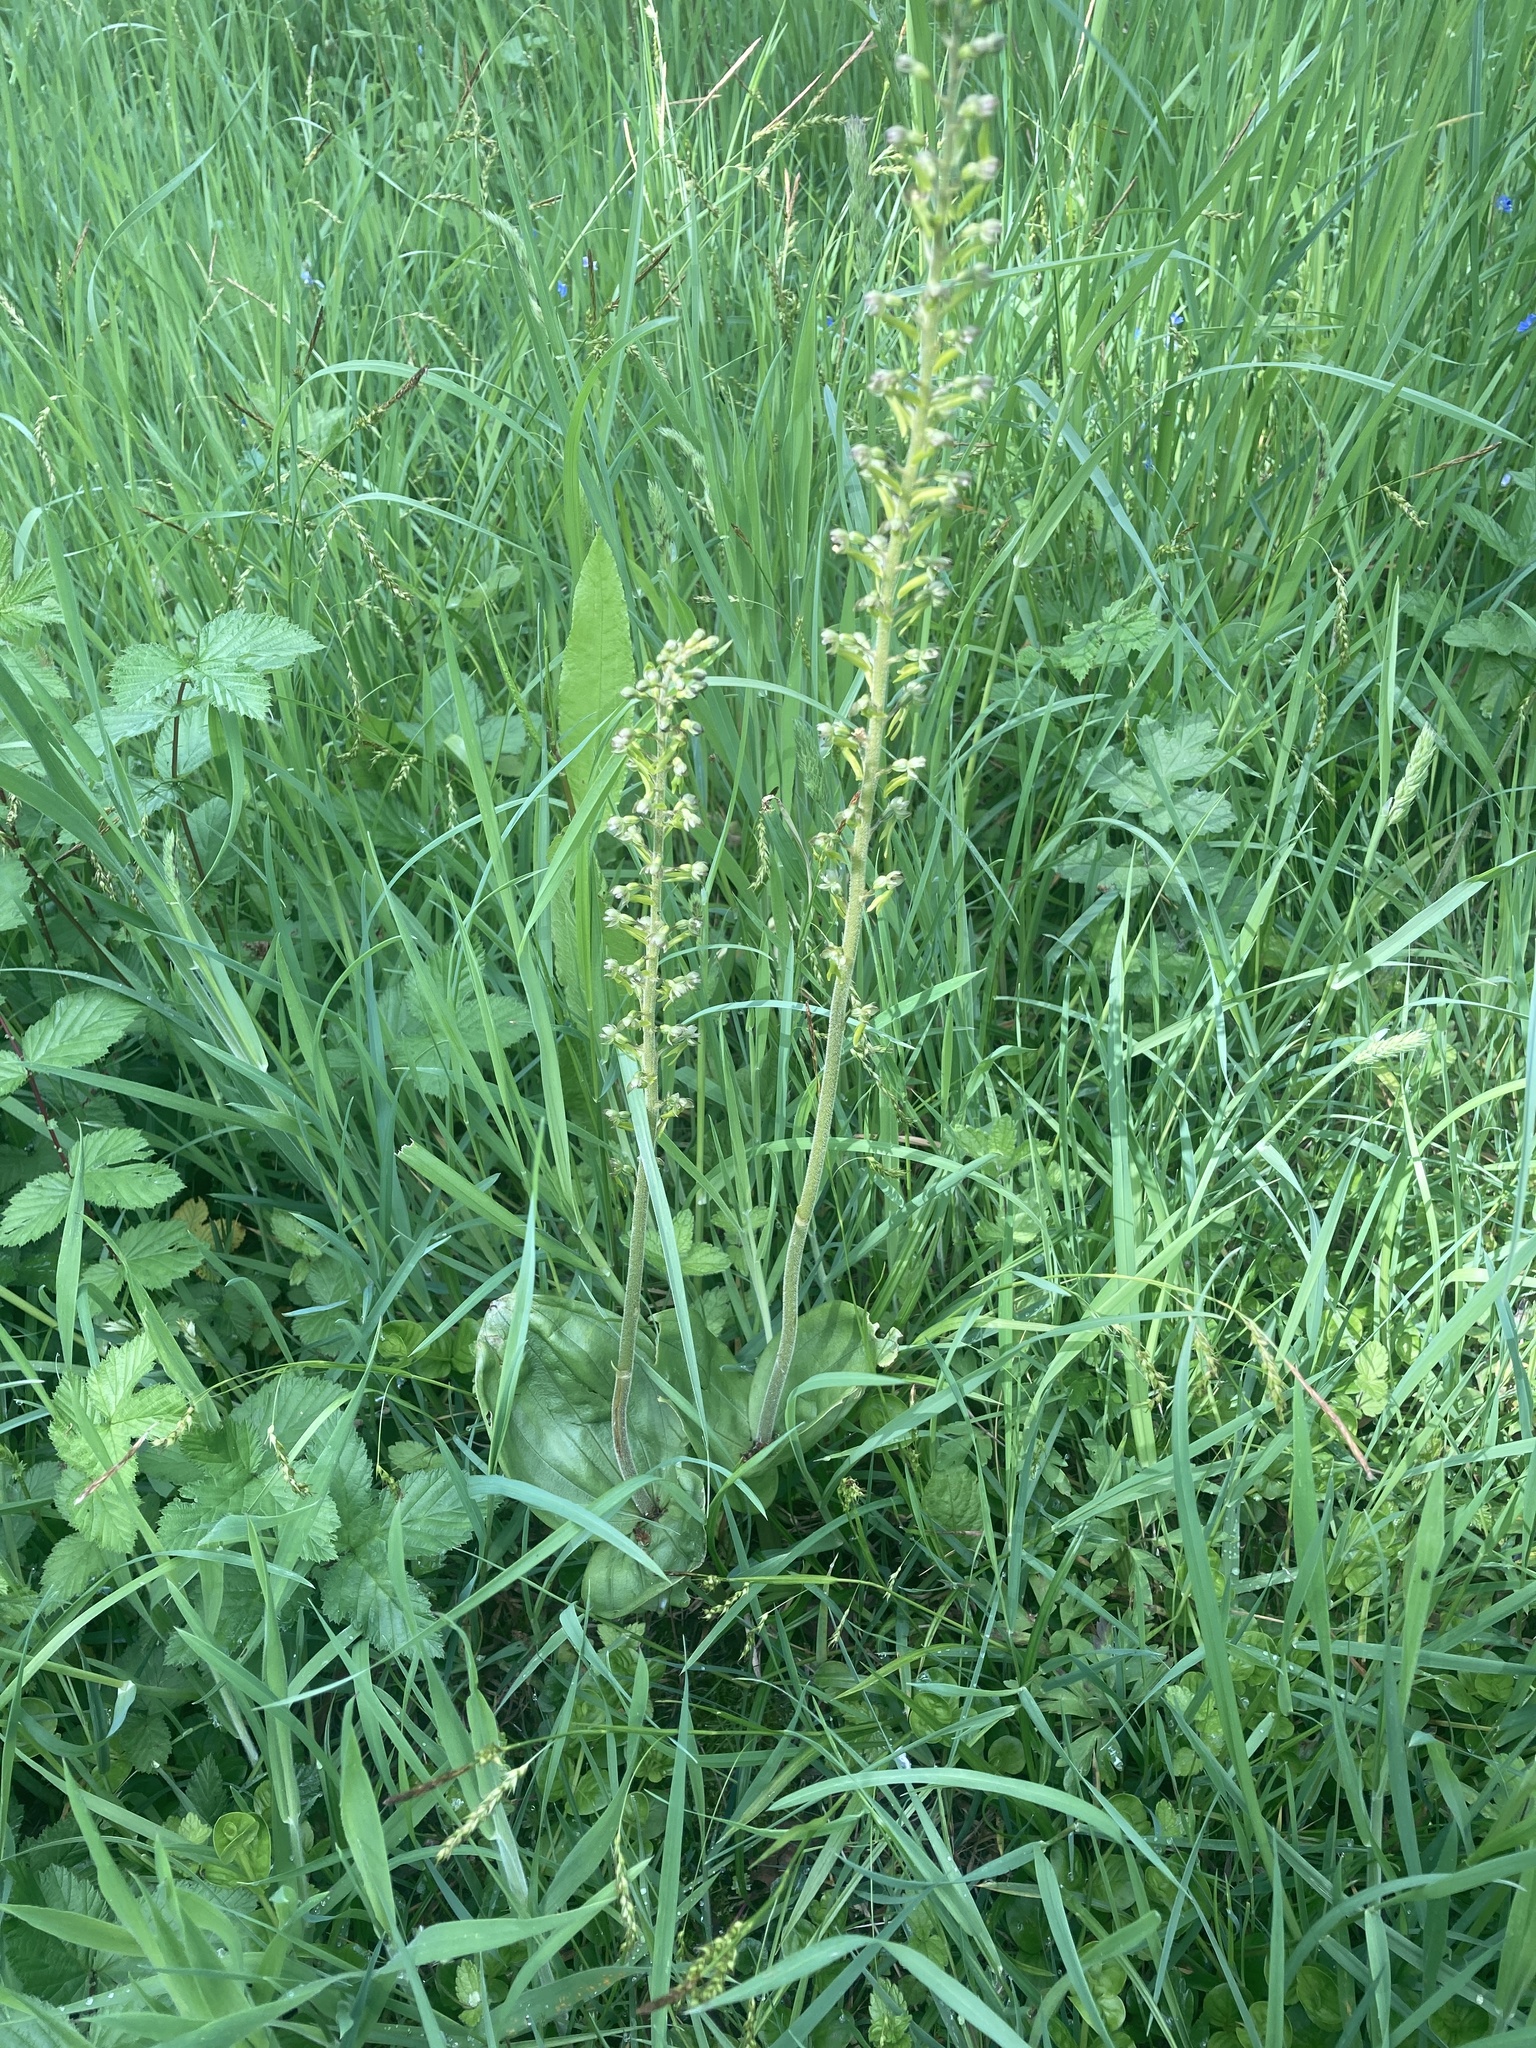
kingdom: Plantae
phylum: Tracheophyta
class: Liliopsida
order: Asparagales
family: Orchidaceae
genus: Neottia
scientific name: Neottia ovata
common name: Common twayblade
